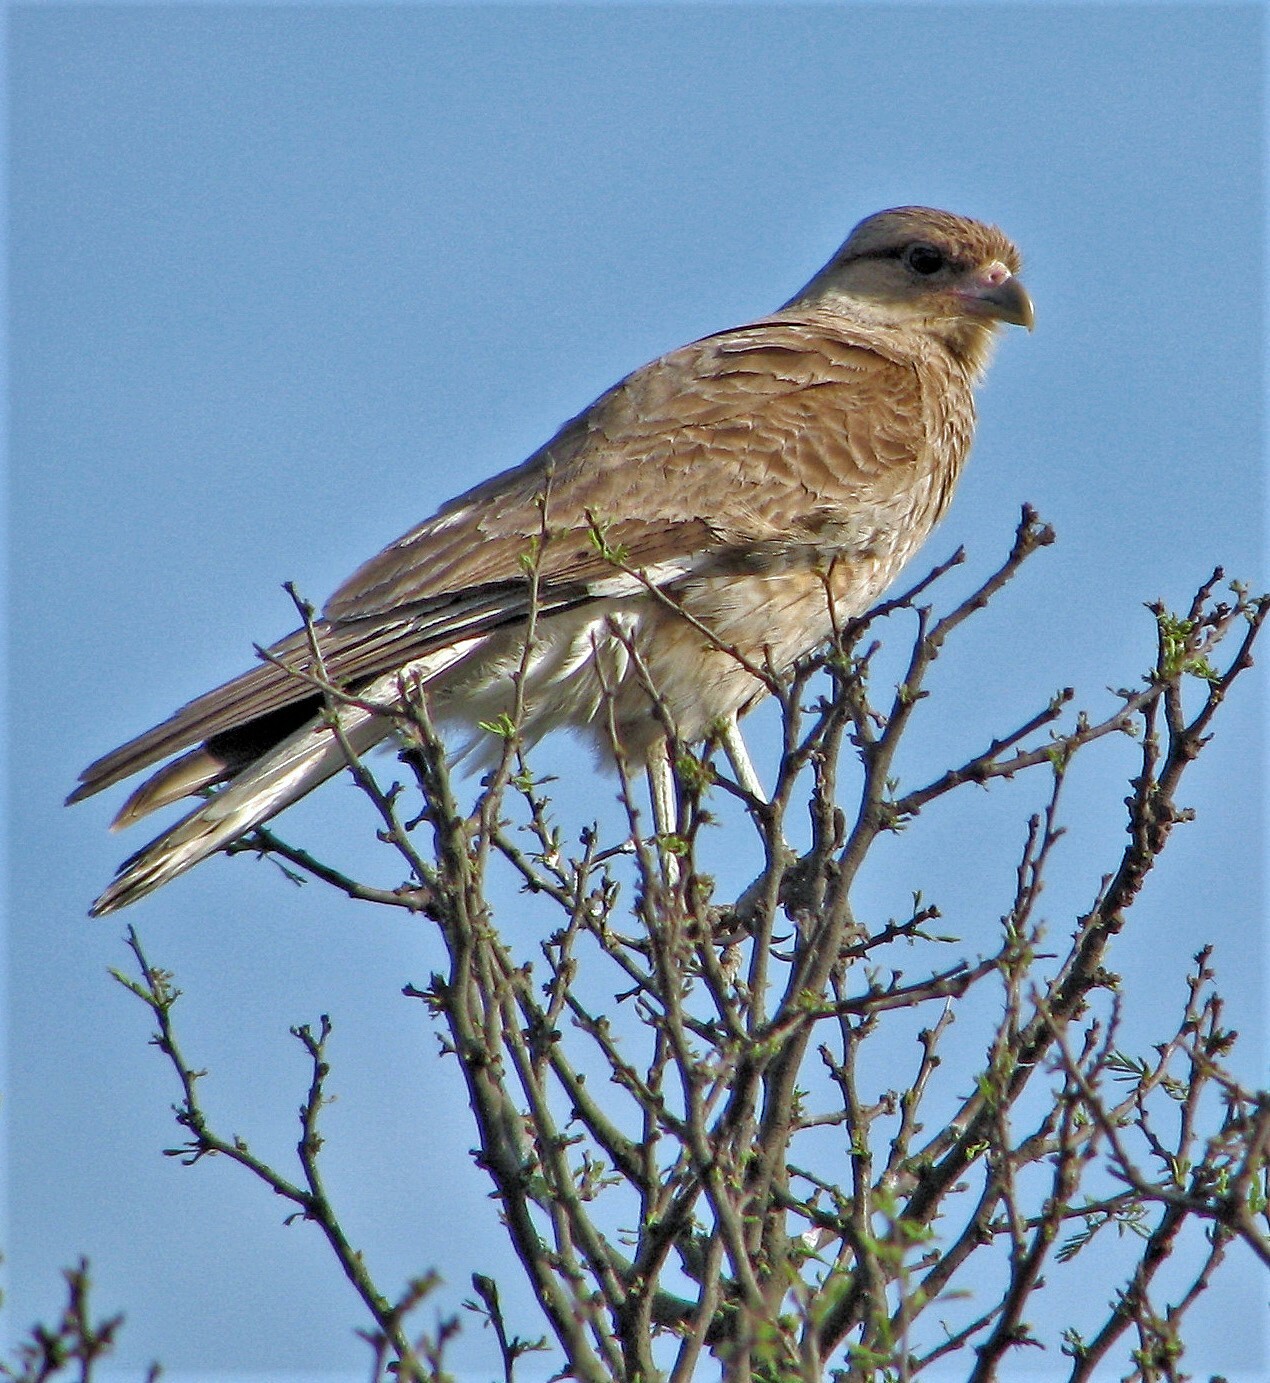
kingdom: Animalia
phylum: Chordata
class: Aves
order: Falconiformes
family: Falconidae
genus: Daptrius
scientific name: Daptrius
